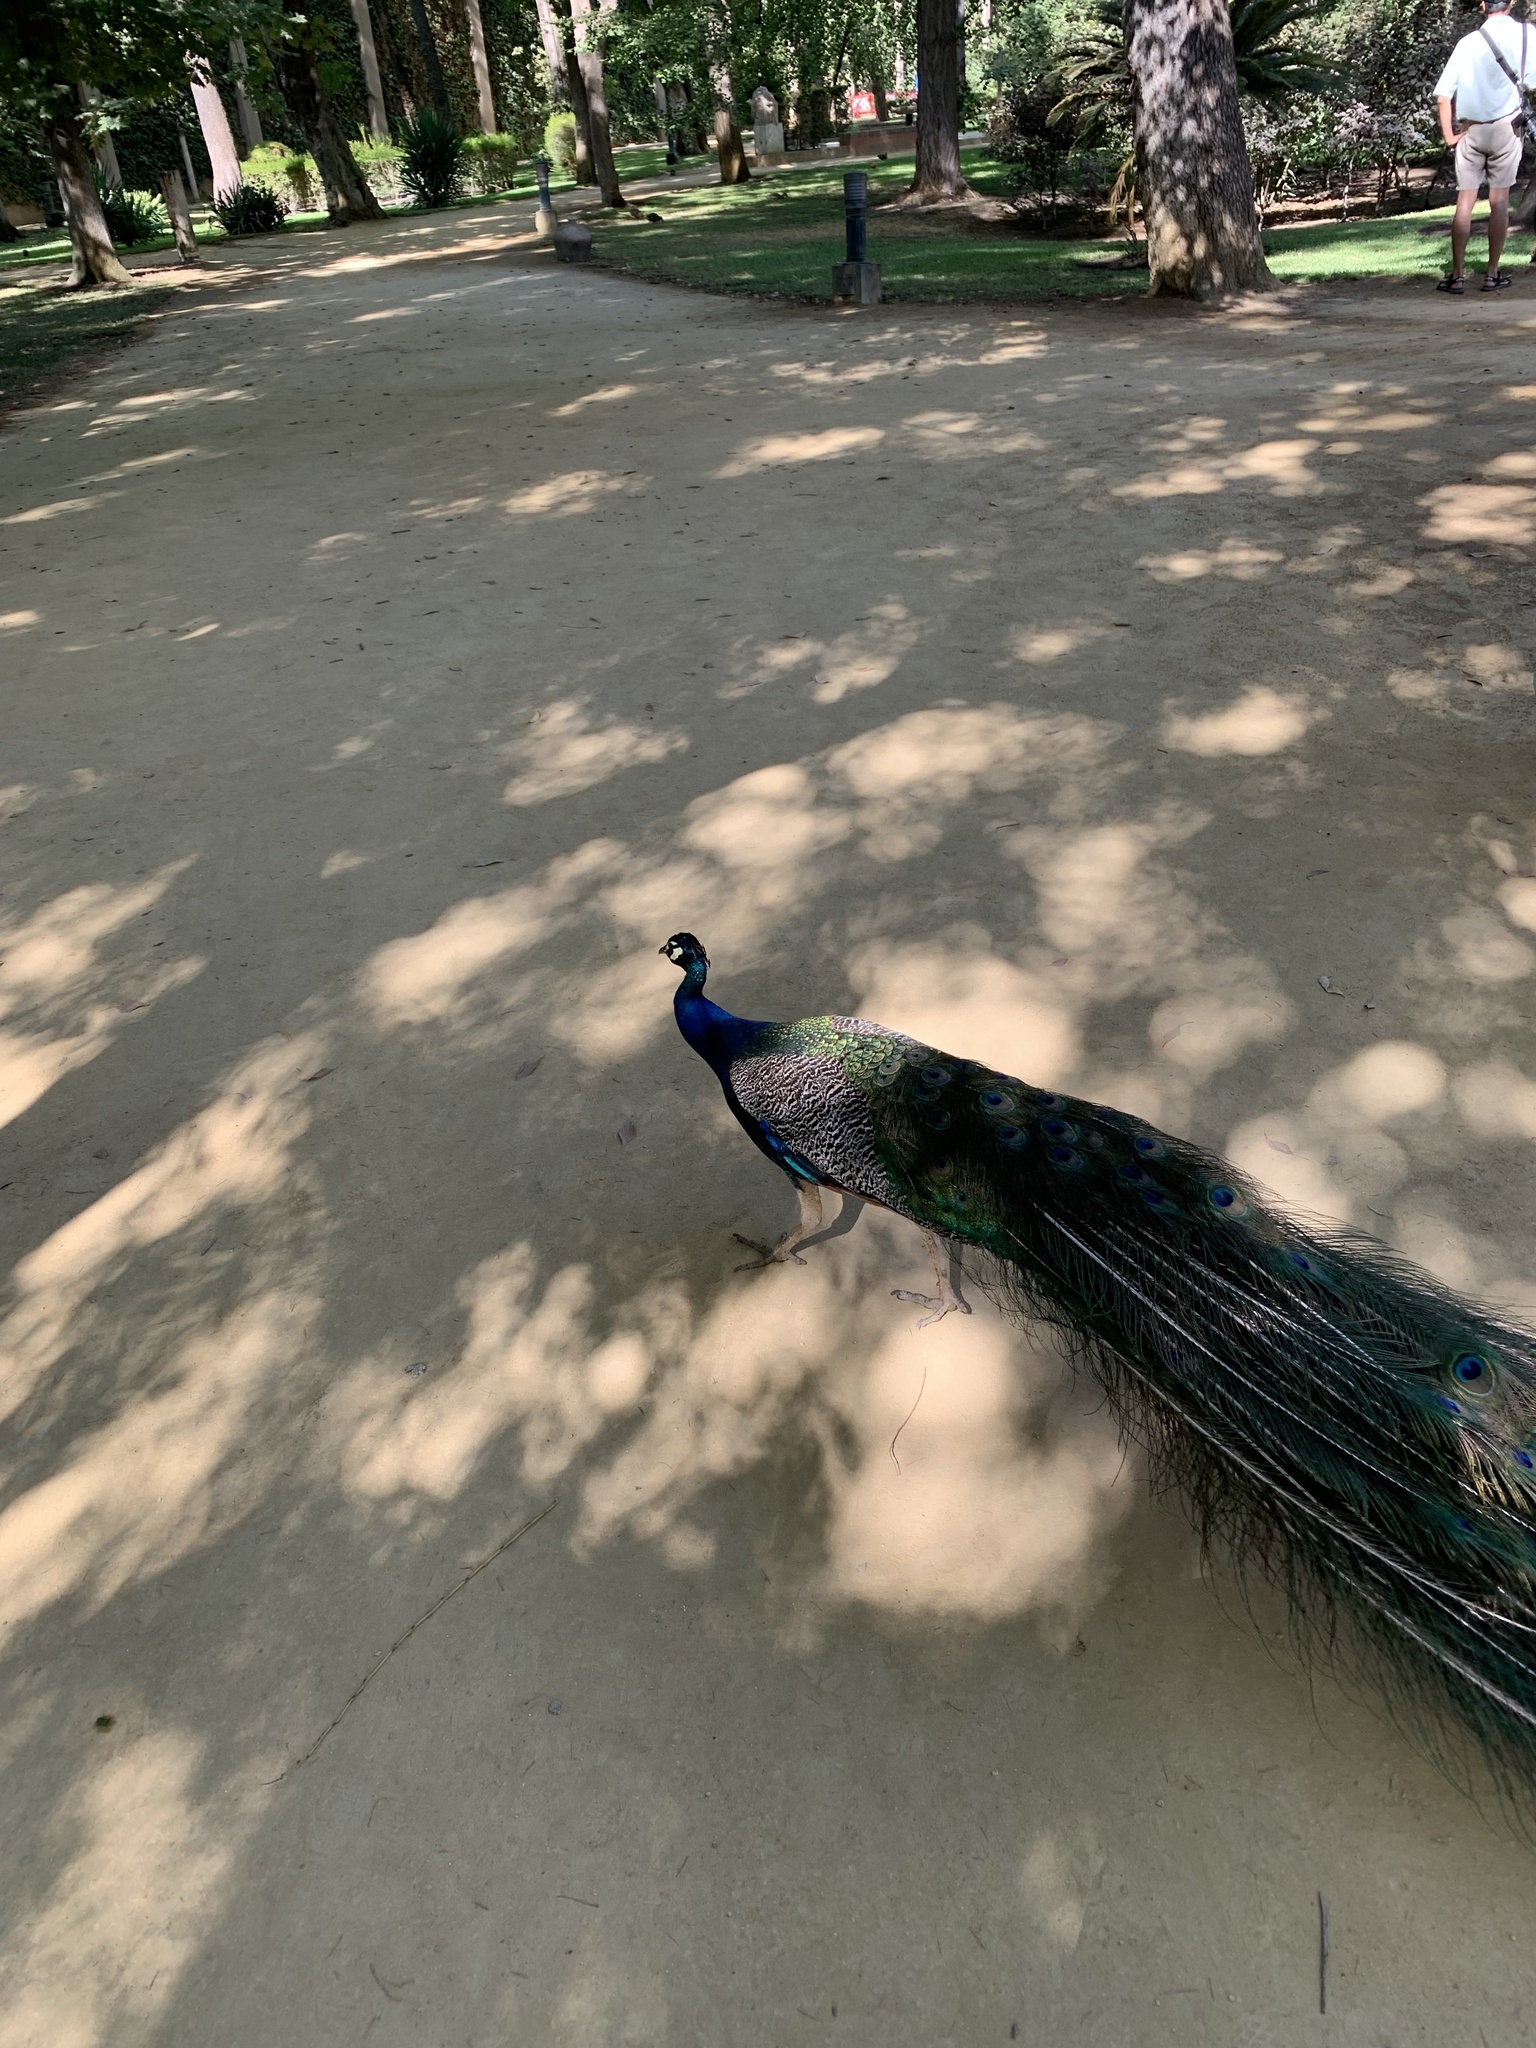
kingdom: Animalia
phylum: Chordata
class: Aves
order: Galliformes
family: Phasianidae
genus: Pavo
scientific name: Pavo cristatus
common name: Indian peafowl
